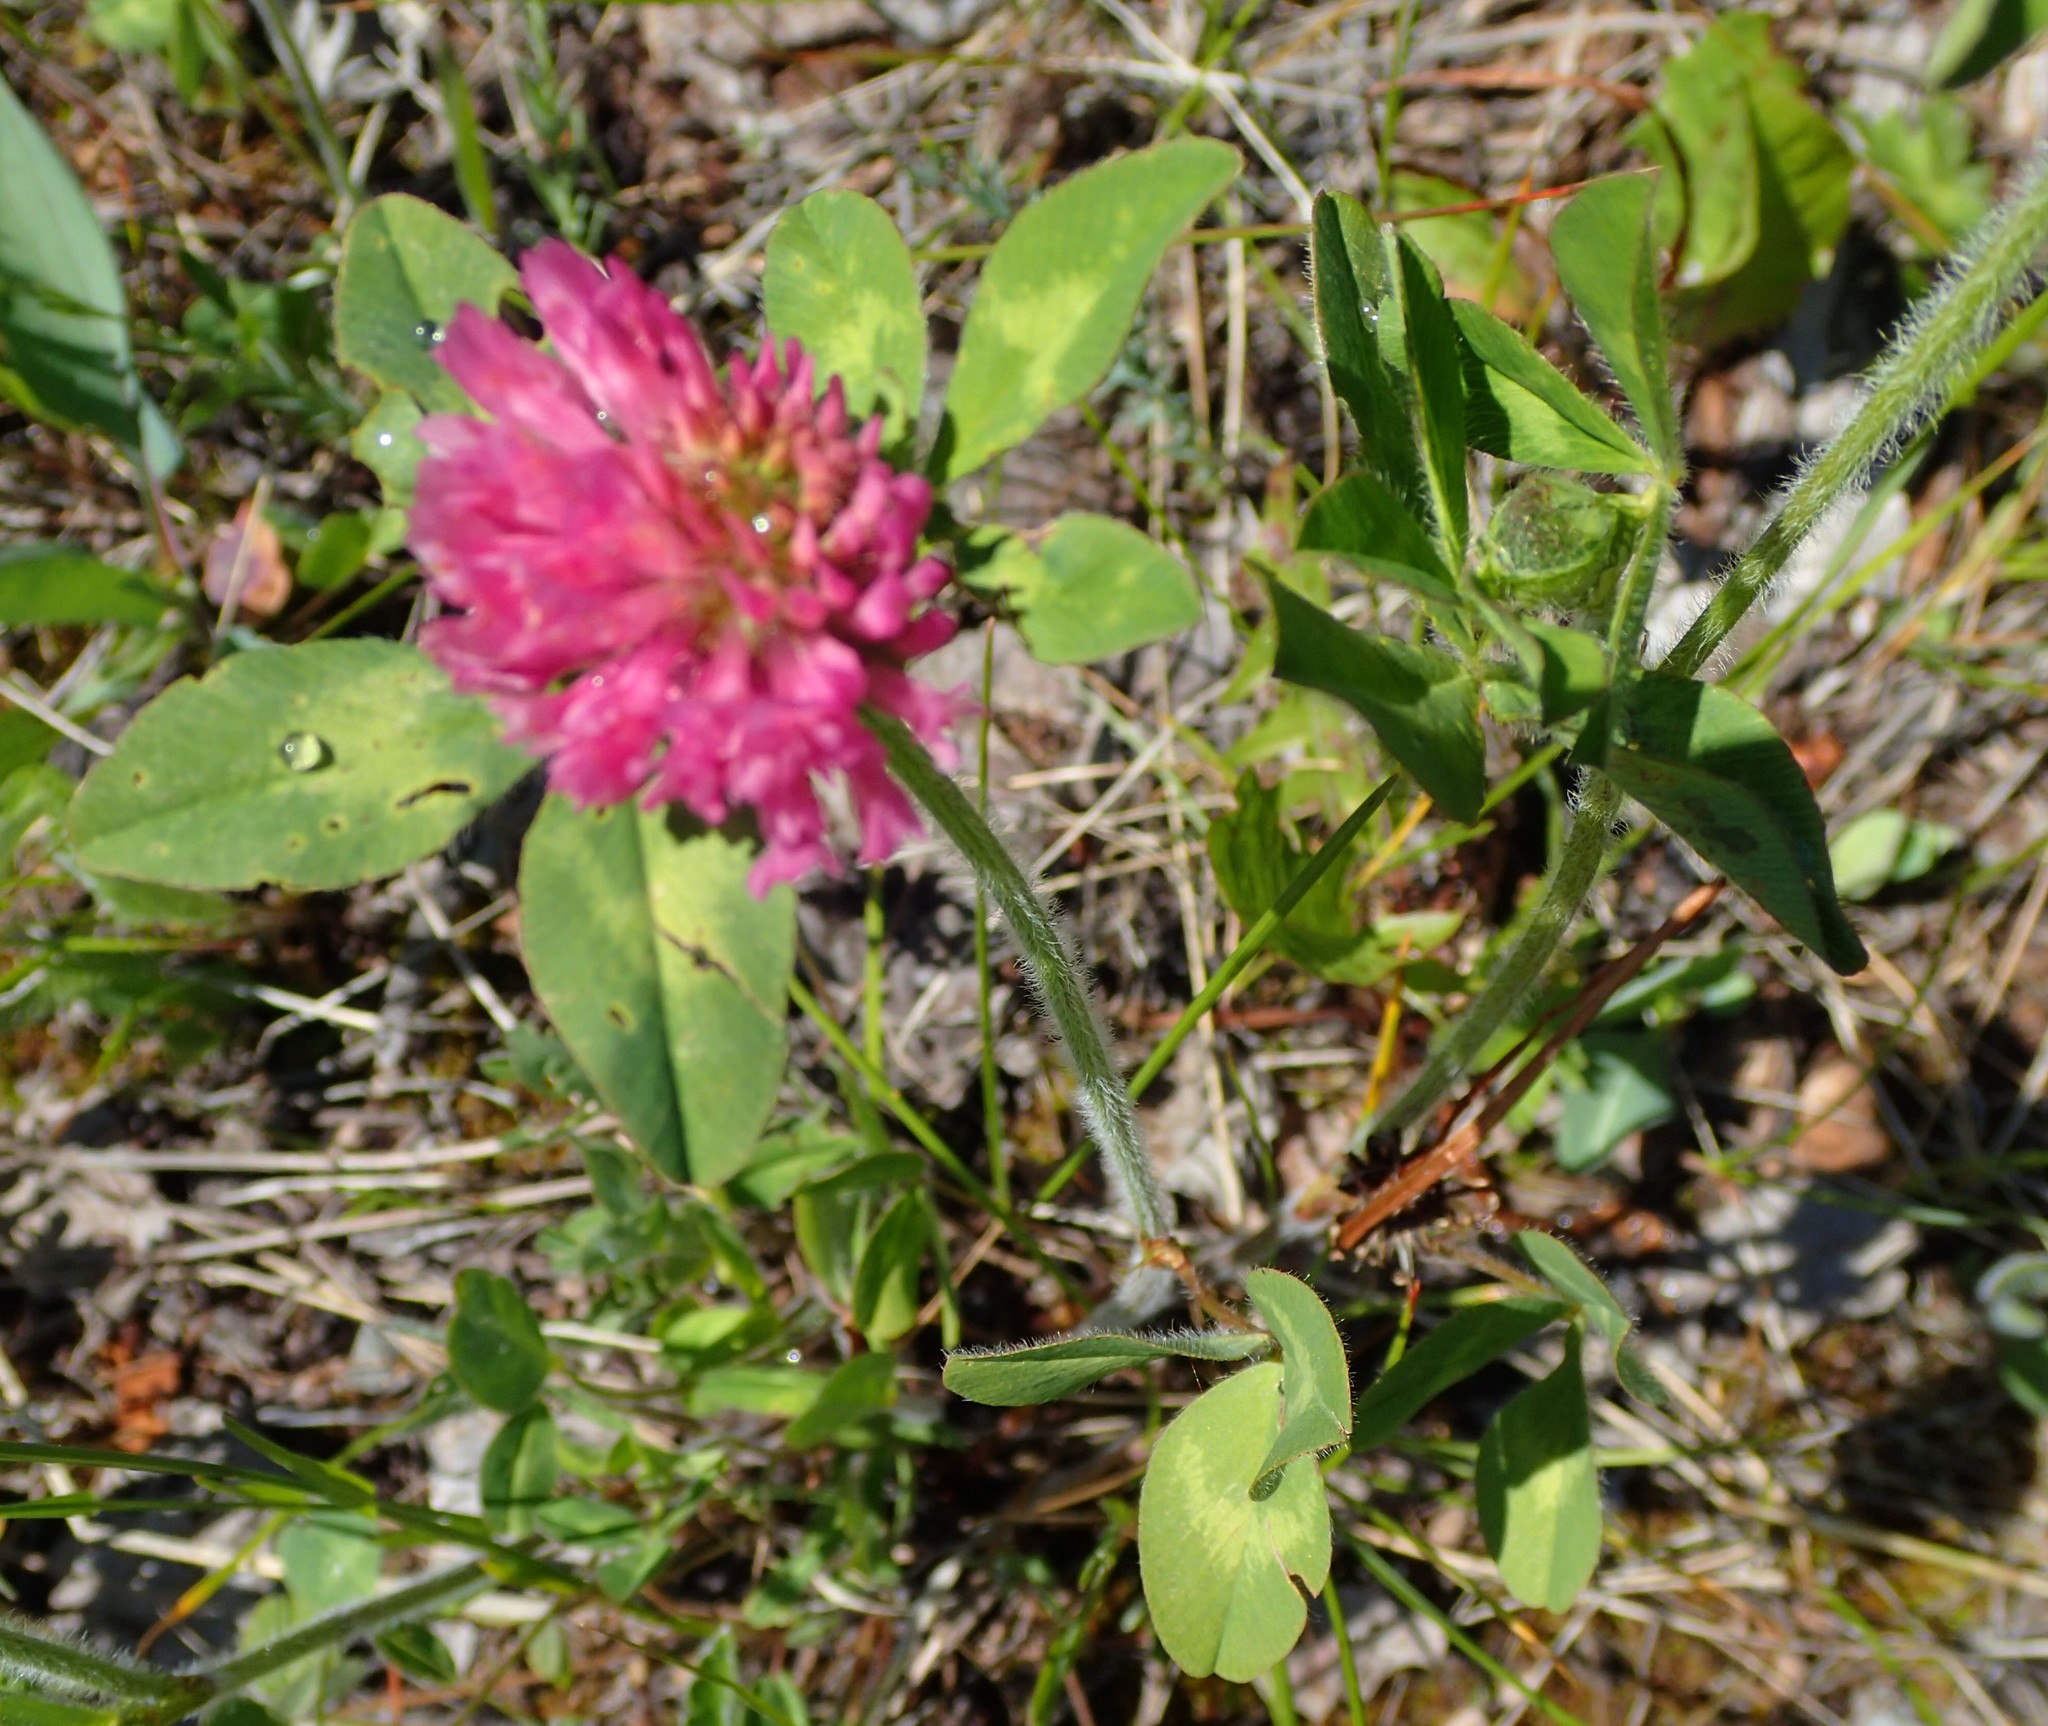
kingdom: Plantae
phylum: Tracheophyta
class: Magnoliopsida
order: Fabales
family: Fabaceae
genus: Trifolium
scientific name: Trifolium pratense
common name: Red clover
